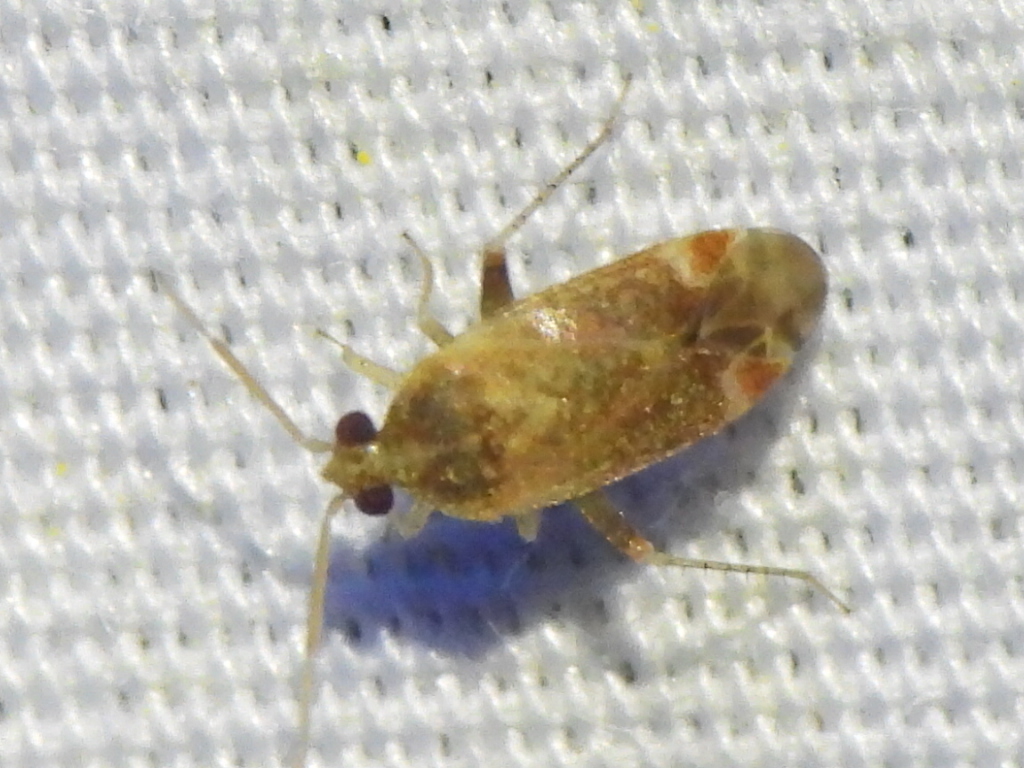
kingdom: Animalia
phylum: Arthropoda
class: Insecta
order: Hemiptera
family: Miridae
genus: Hamatophylus
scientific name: Hamatophylus guttulosus
